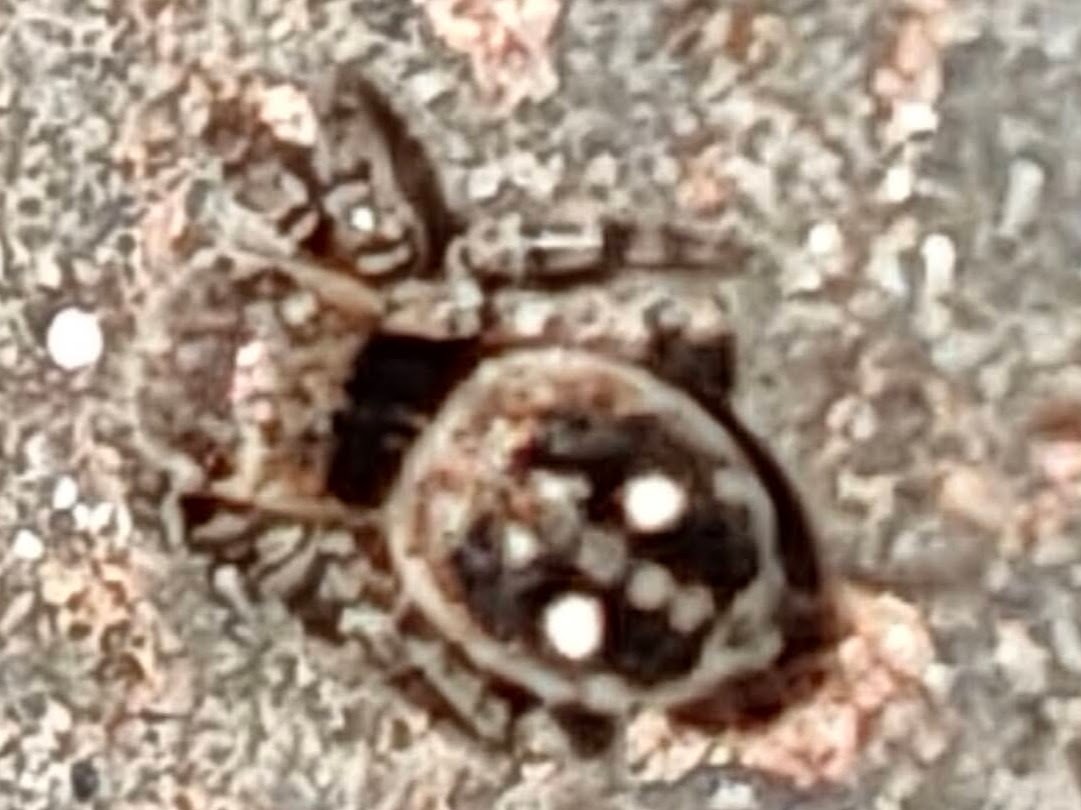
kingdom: Animalia
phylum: Arthropoda
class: Arachnida
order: Araneae
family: Salticidae
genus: Attulus
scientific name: Attulus penicillatus
